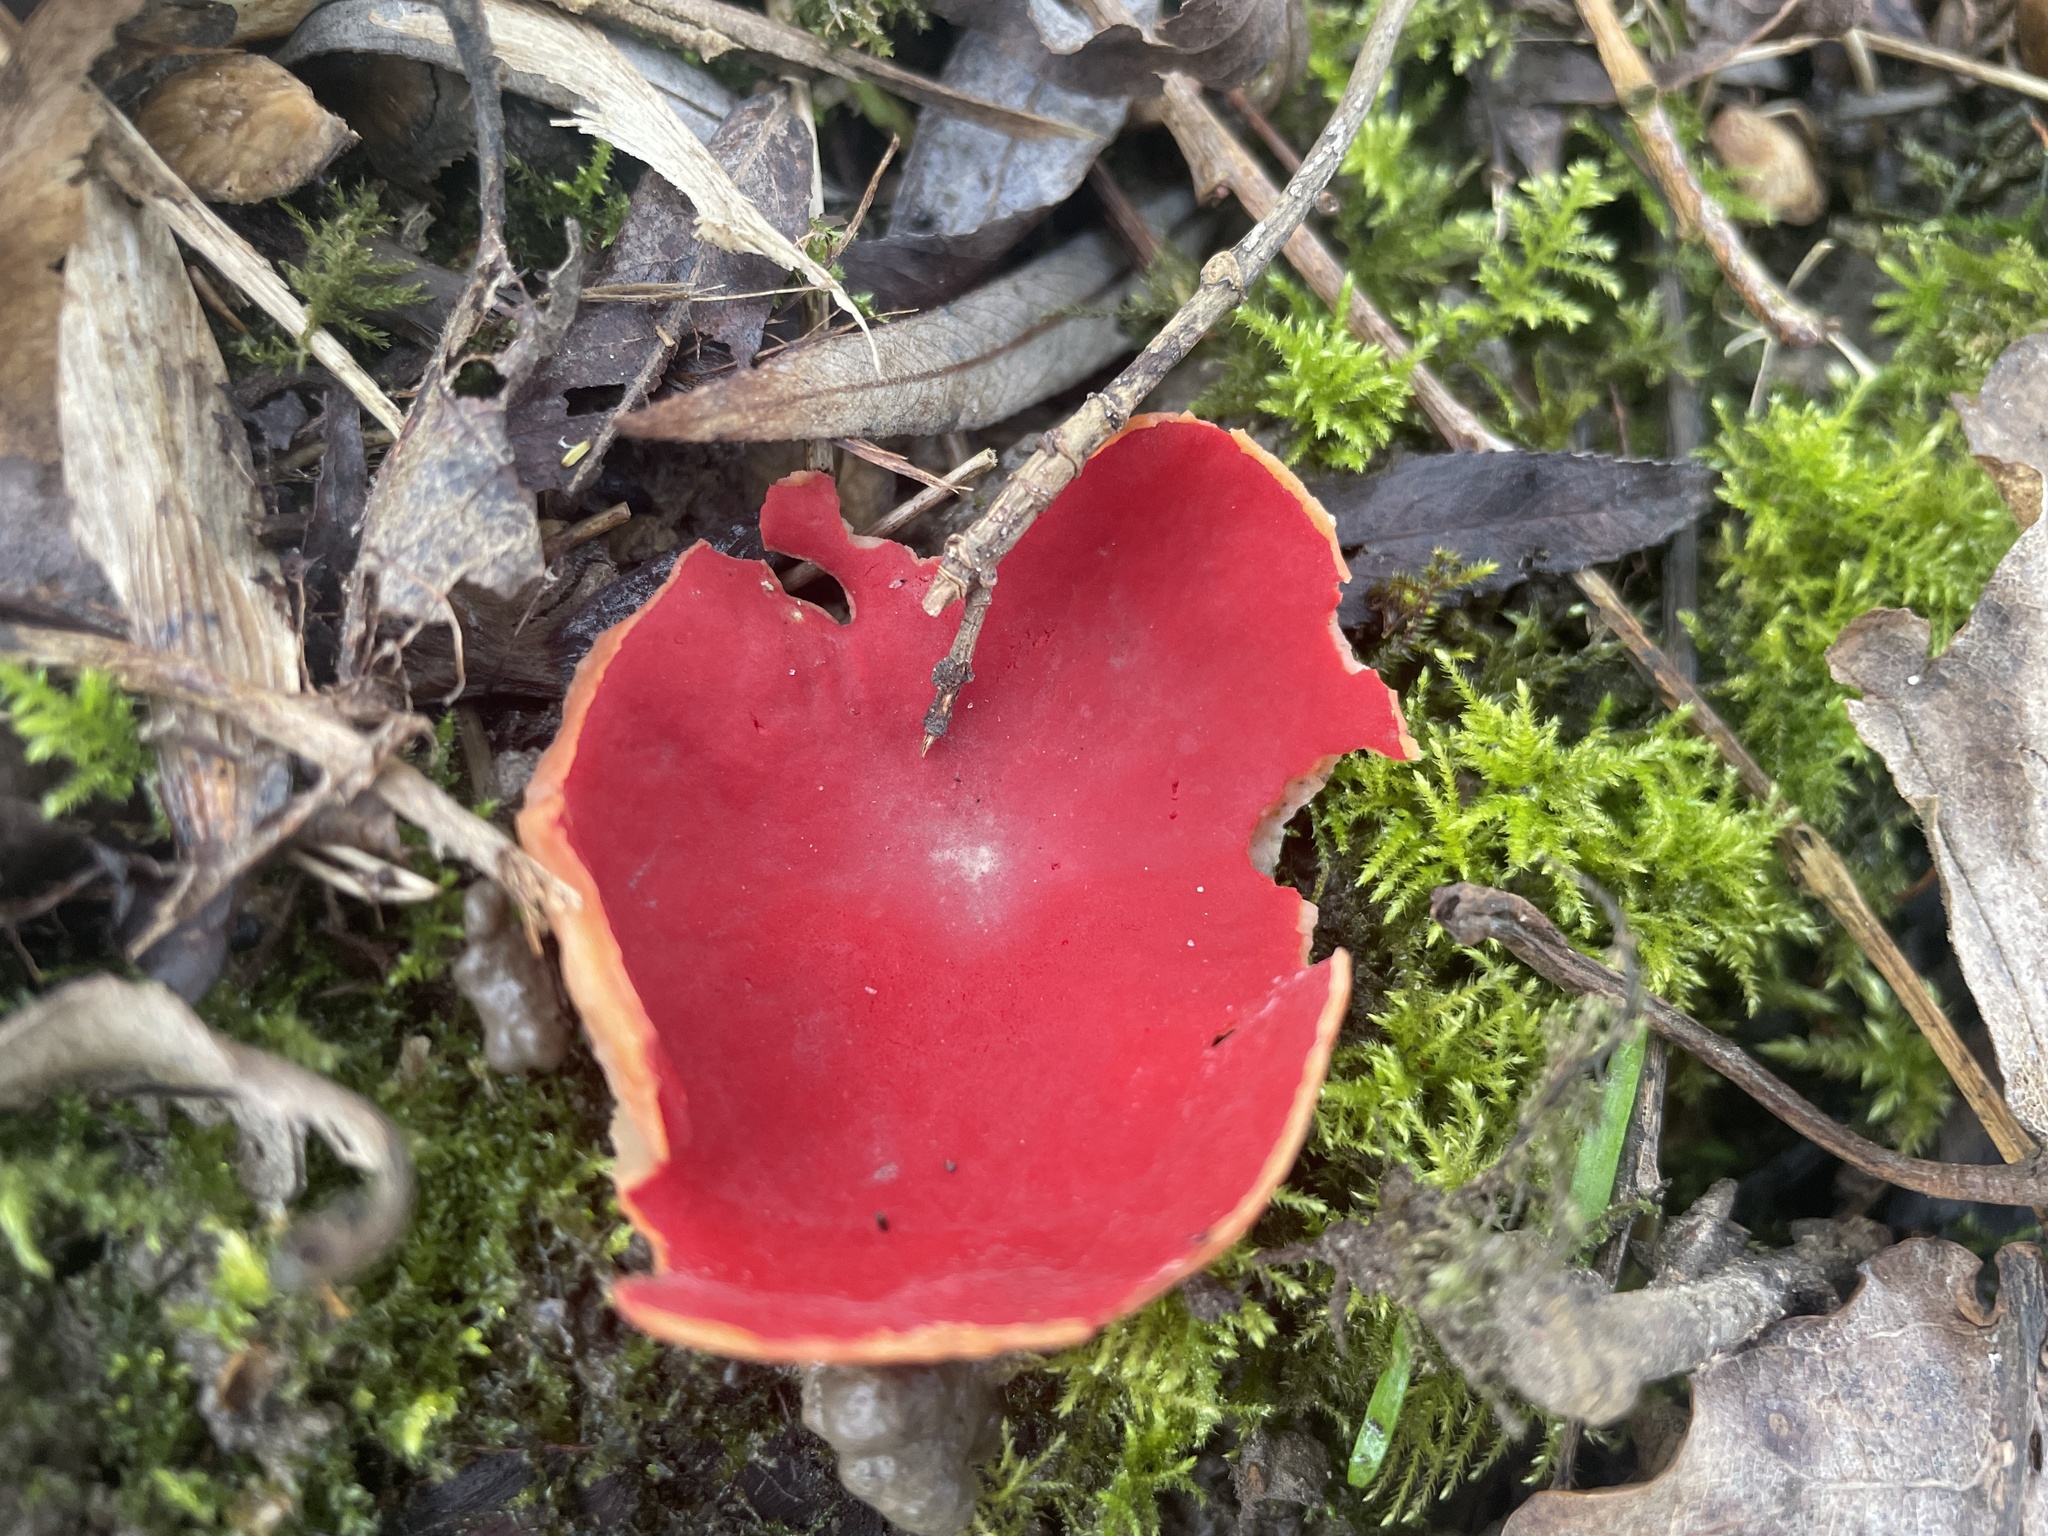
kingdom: Fungi
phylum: Ascomycota
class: Pezizomycetes
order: Pezizales
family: Sarcoscyphaceae
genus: Sarcoscypha
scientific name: Sarcoscypha
